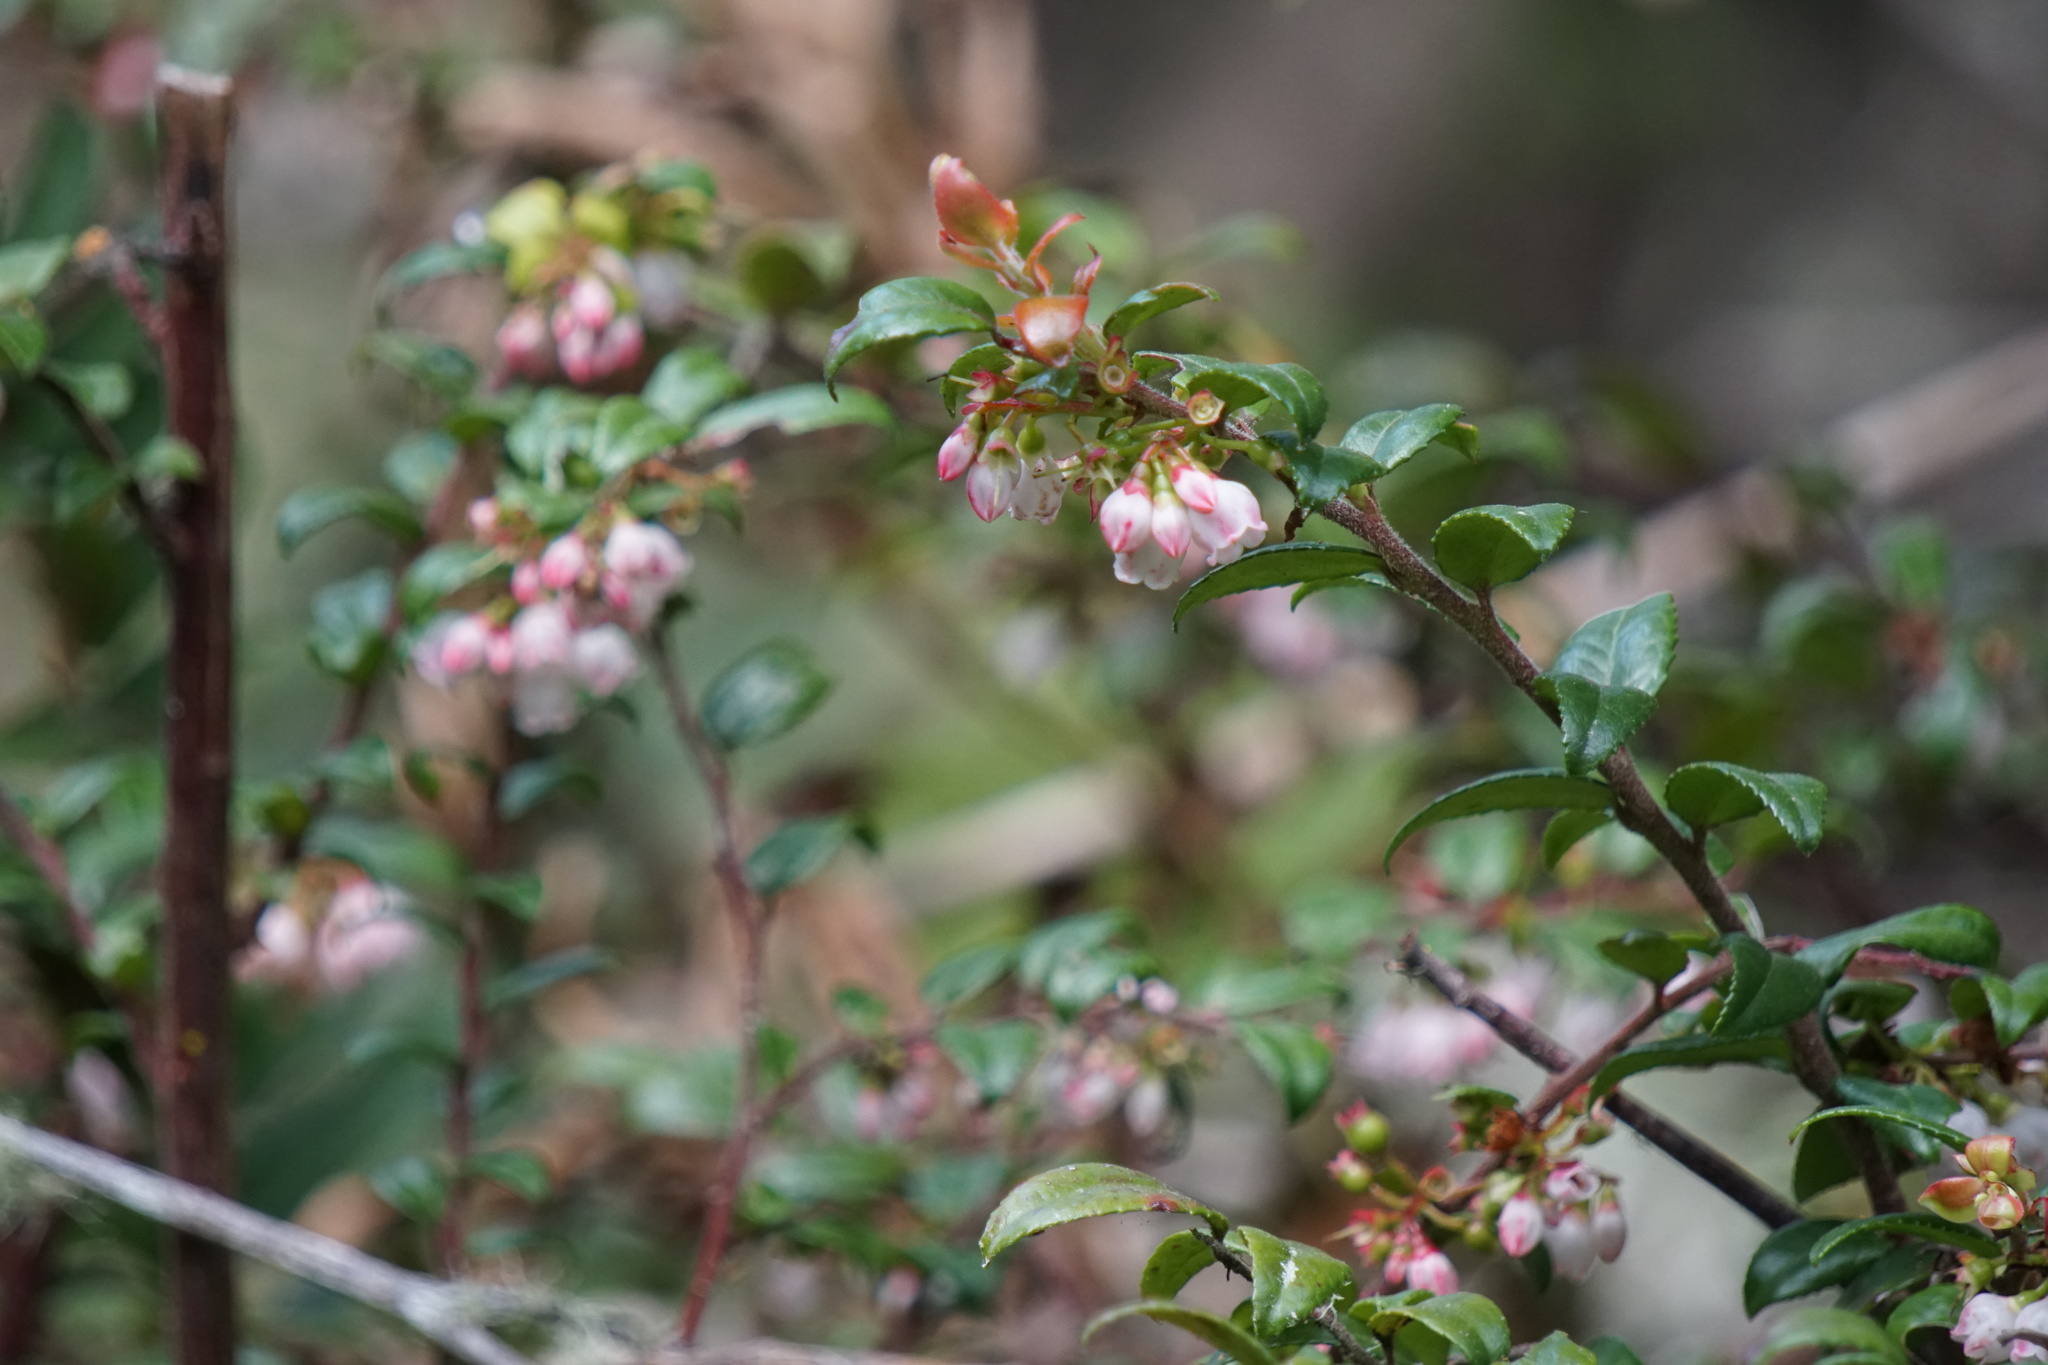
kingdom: Plantae
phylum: Tracheophyta
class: Magnoliopsida
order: Ericales
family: Ericaceae
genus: Vaccinium
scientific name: Vaccinium ovatum
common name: California-huckleberry
